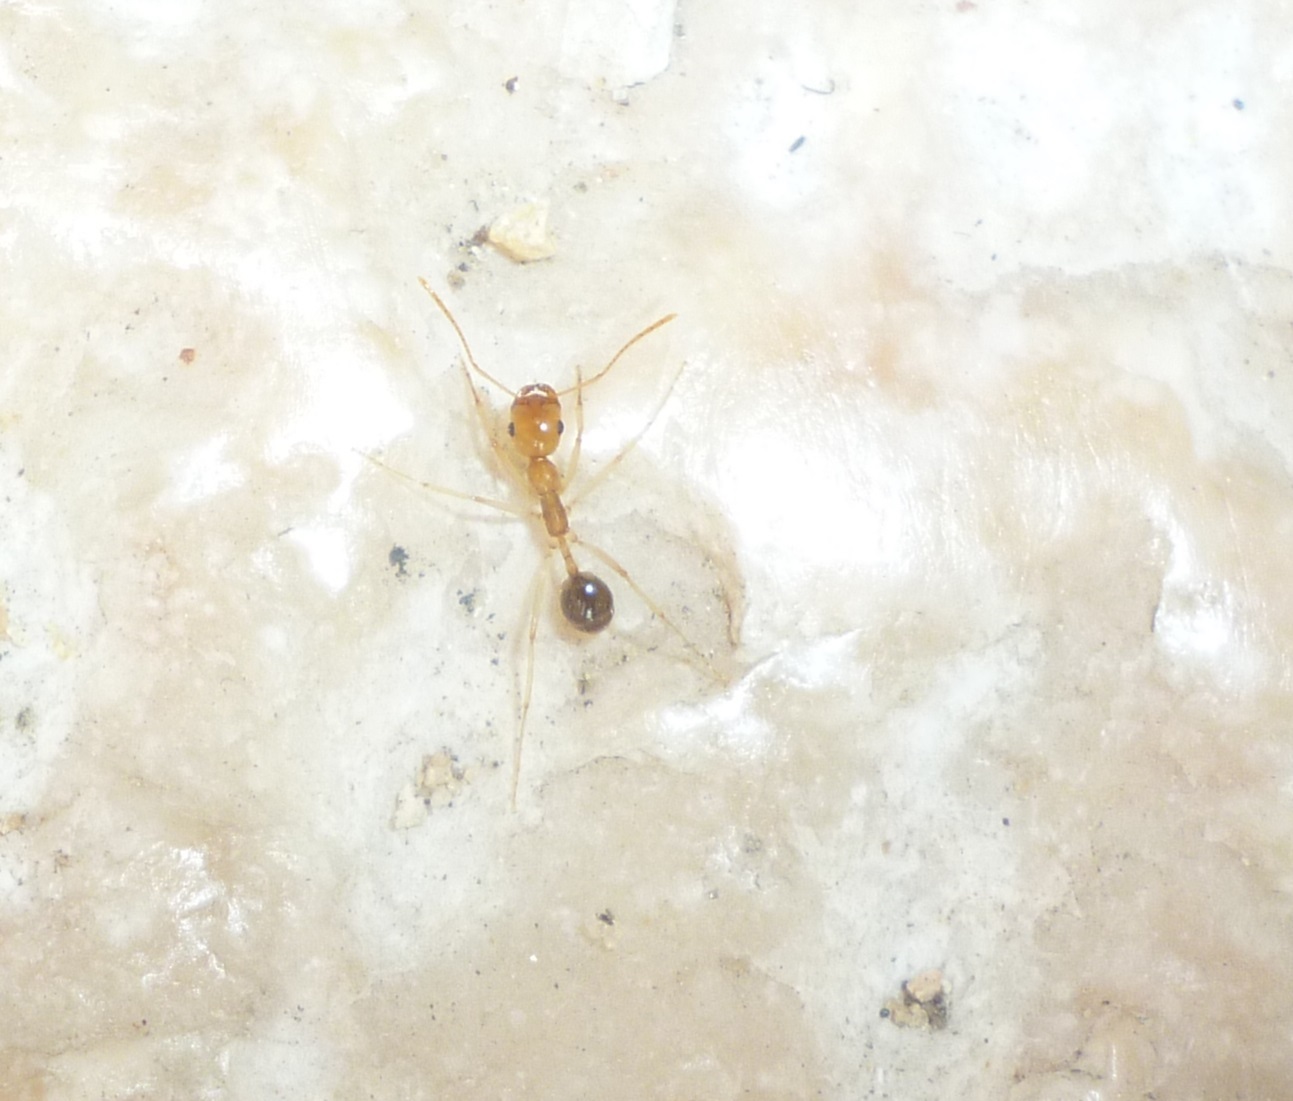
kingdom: Animalia
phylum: Arthropoda
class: Insecta
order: Hymenoptera
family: Formicidae
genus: Messor
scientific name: Messor rufotestaceus
